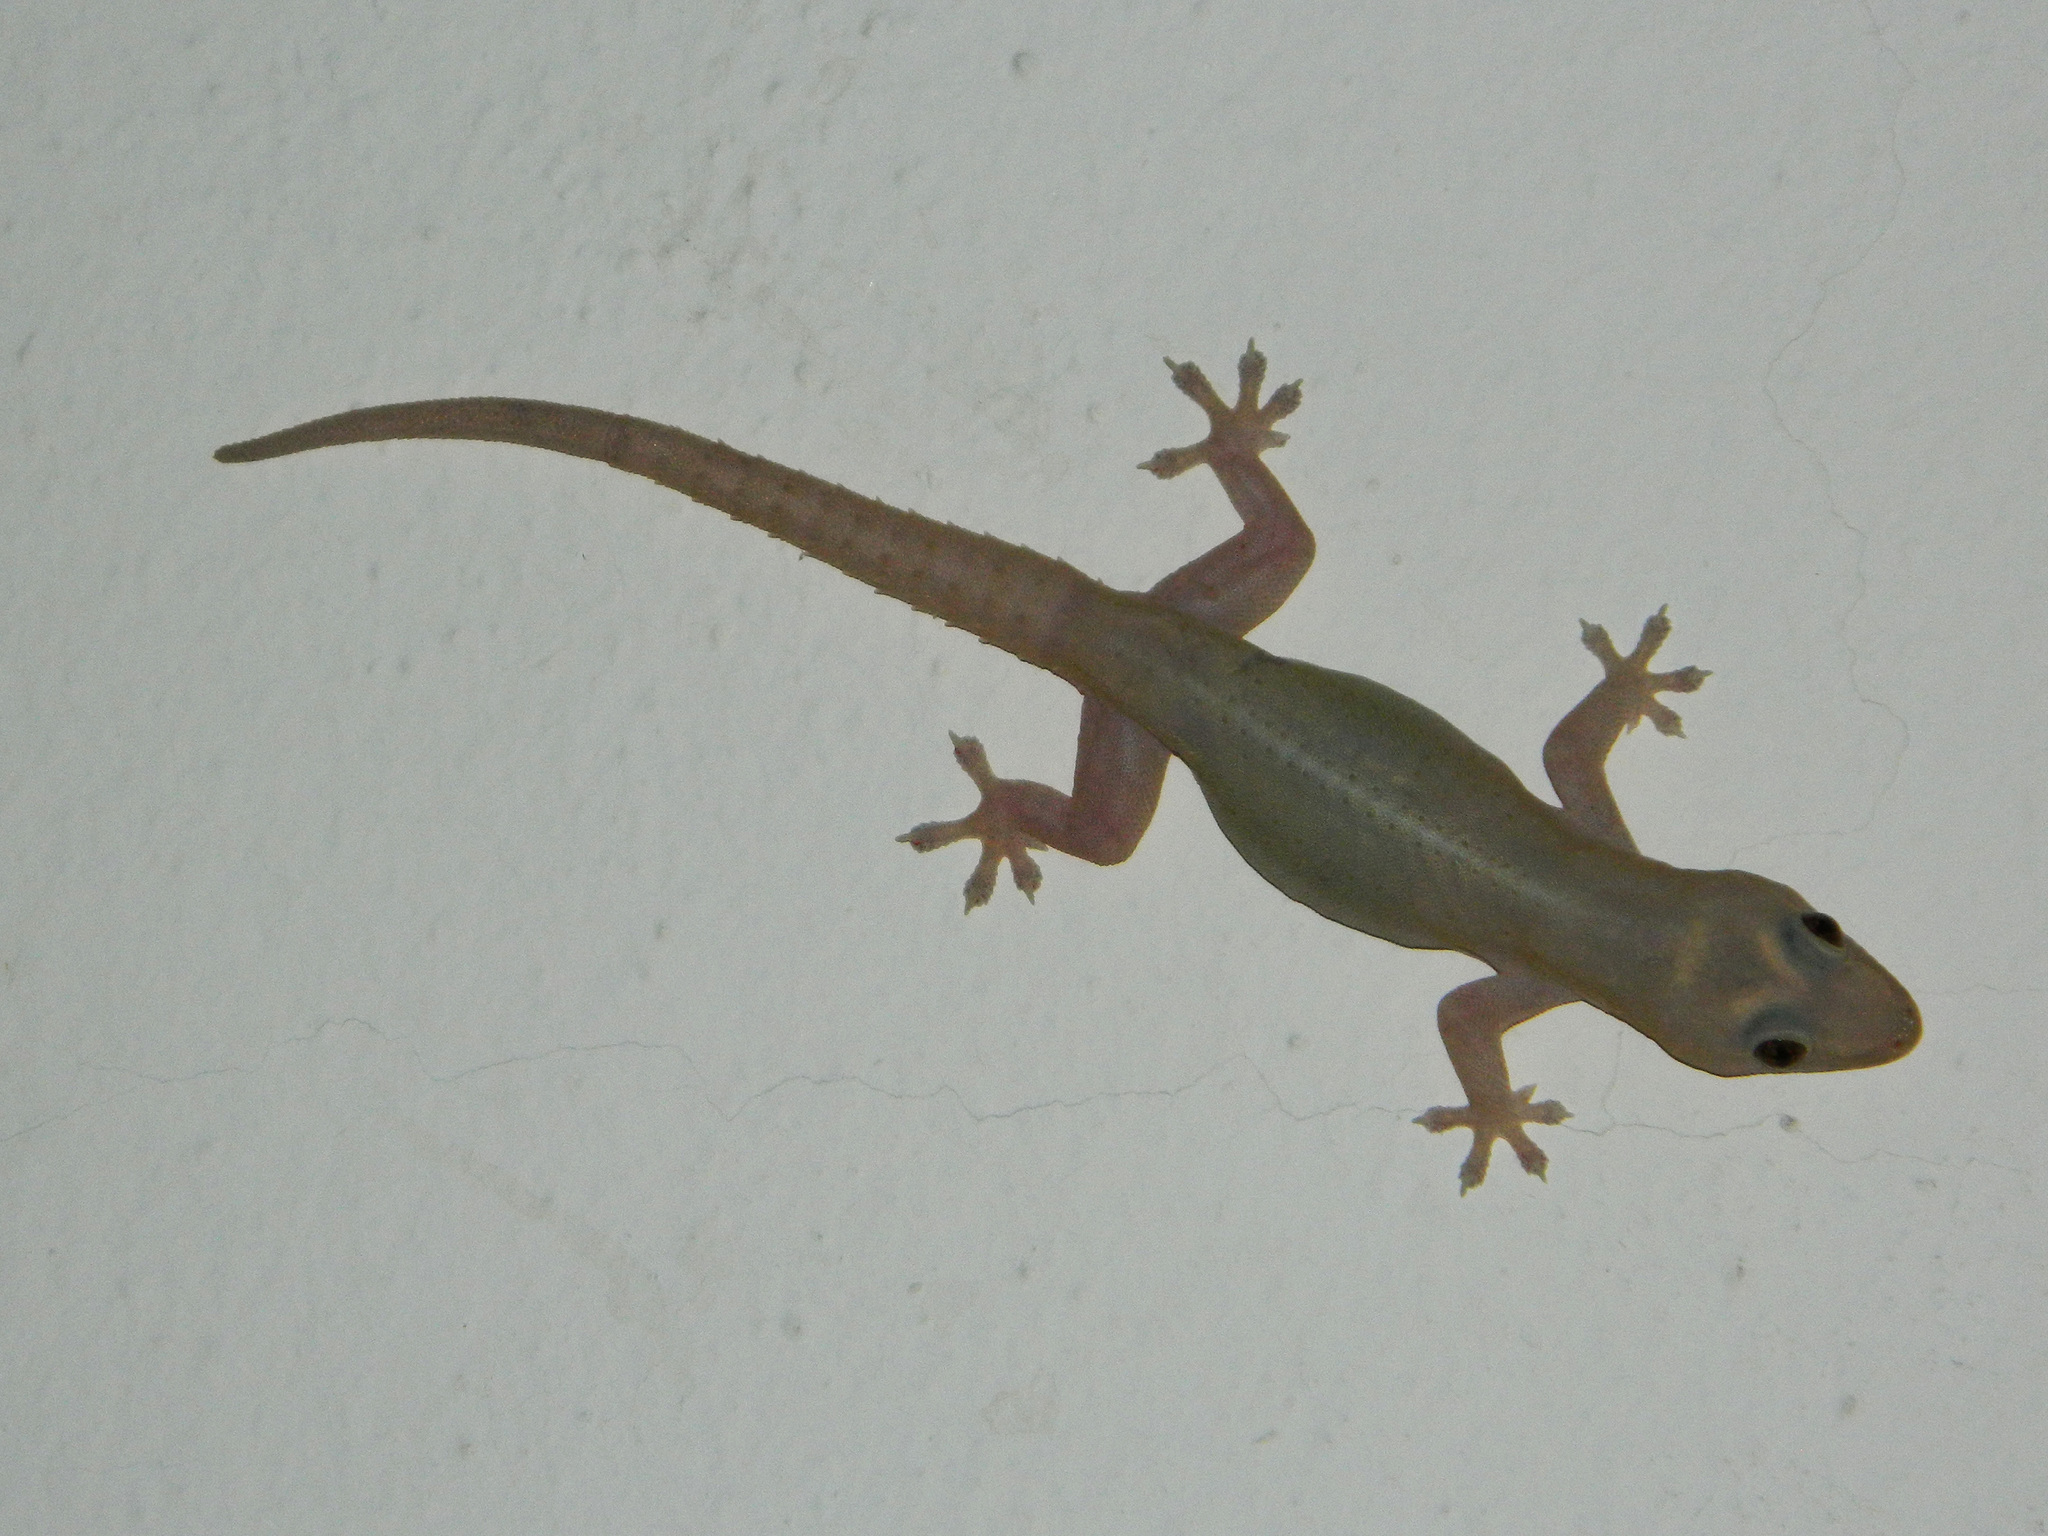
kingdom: Animalia
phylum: Chordata
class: Squamata
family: Gekkonidae
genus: Hemidactylus
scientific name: Hemidactylus frenatus
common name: Common house gecko
